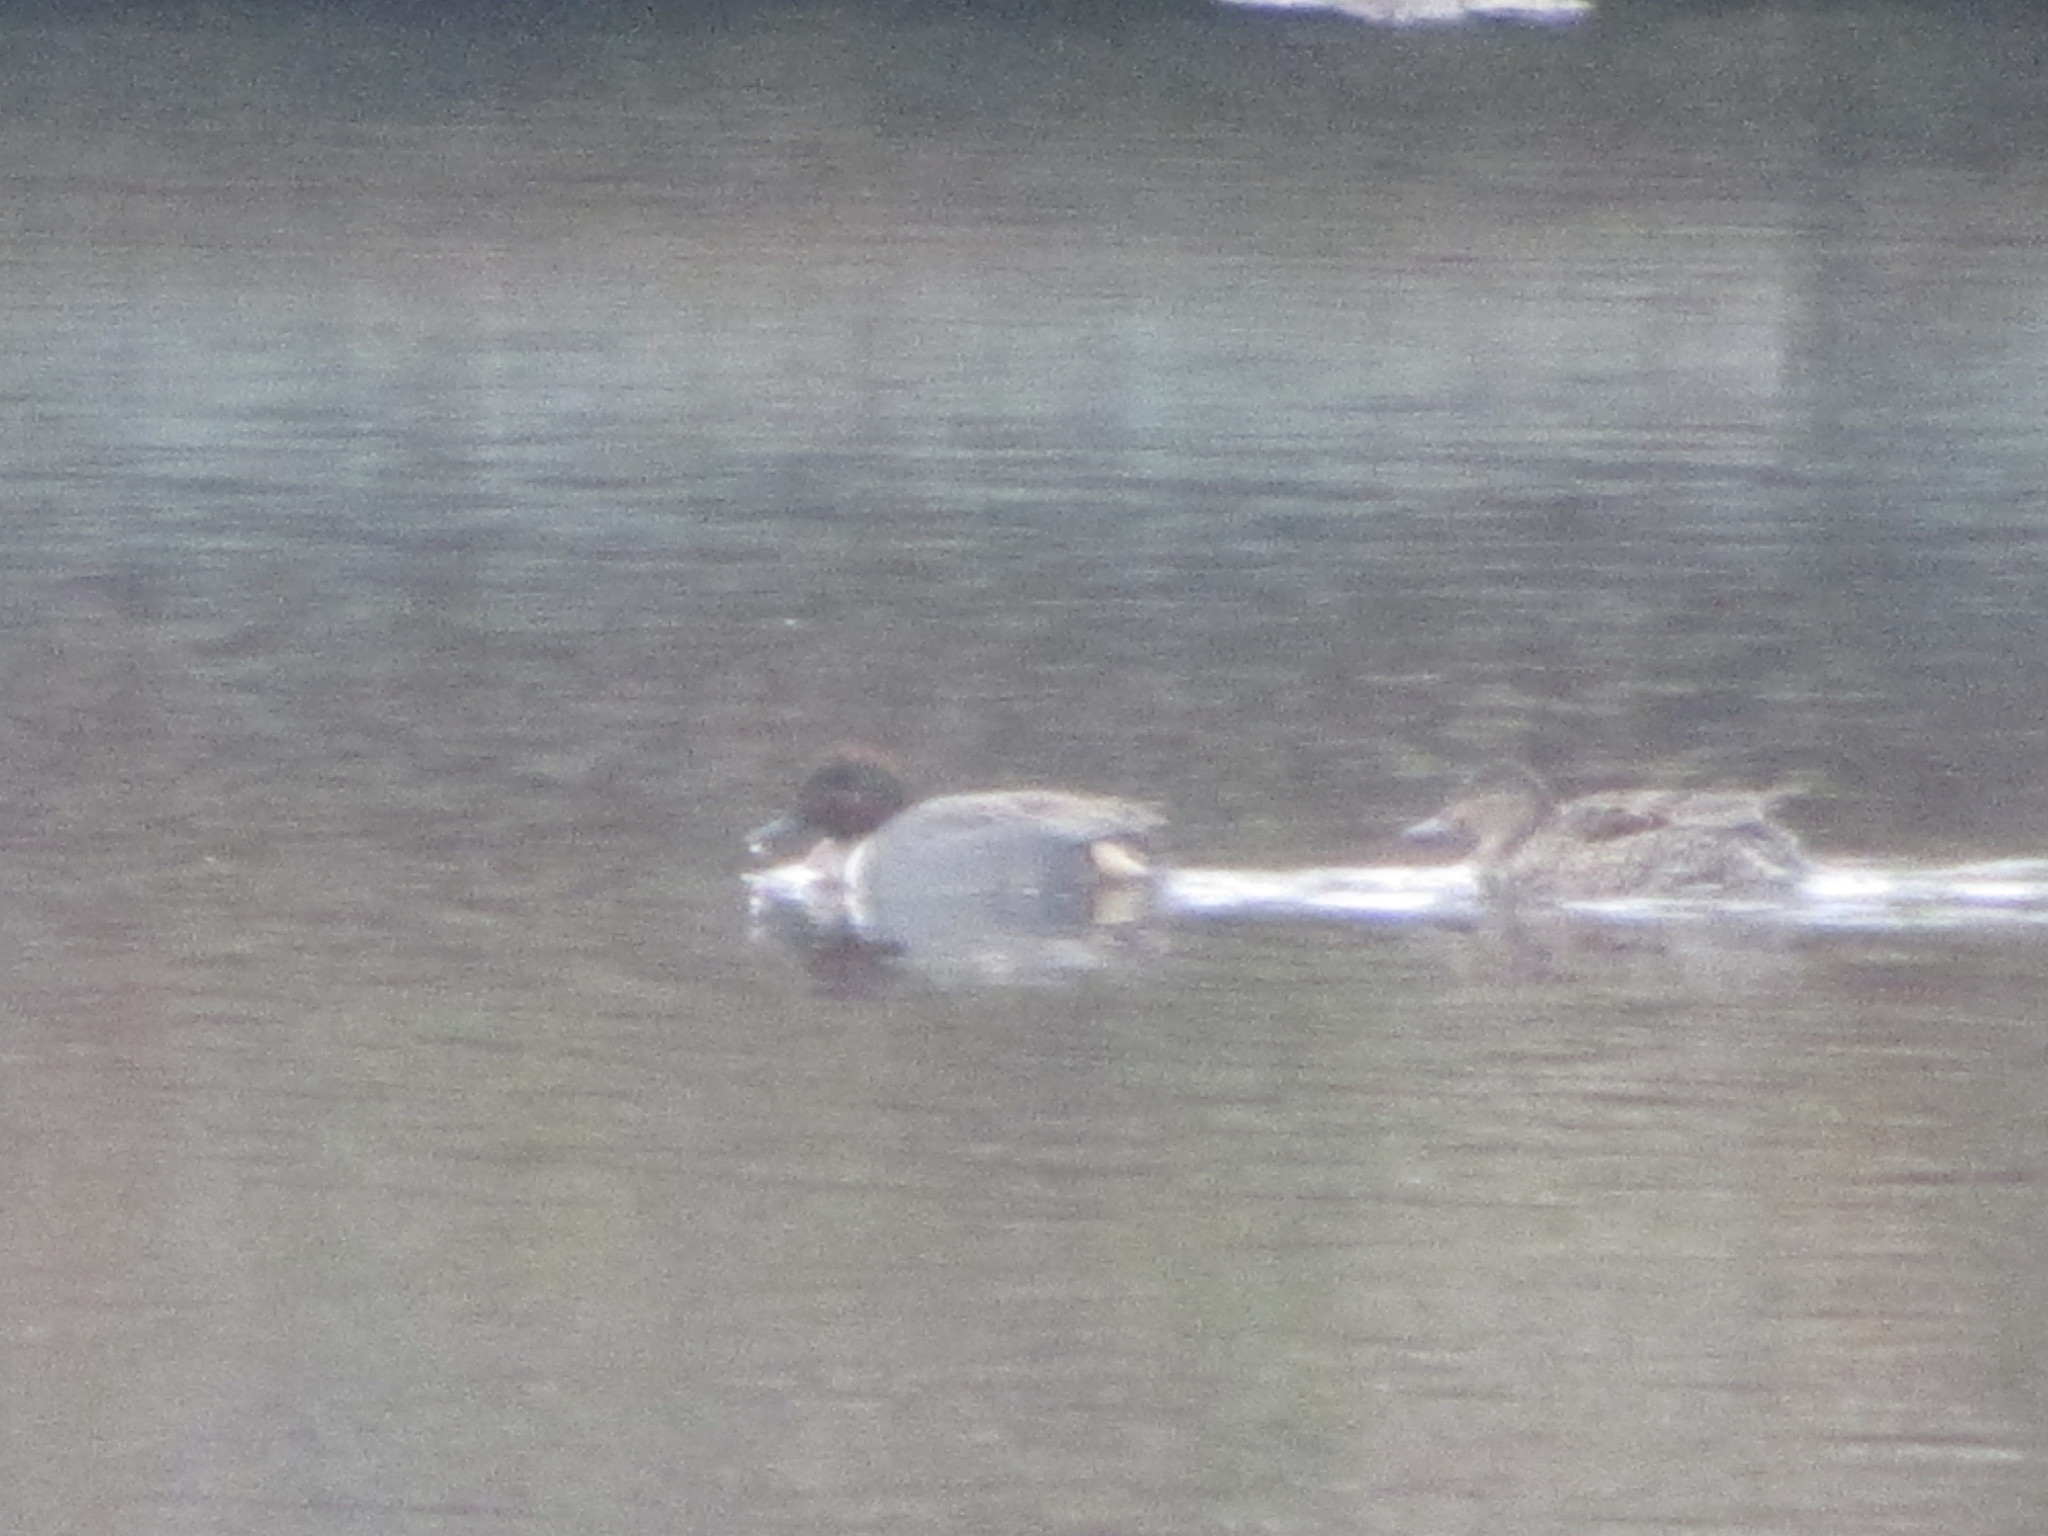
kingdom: Animalia
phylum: Chordata
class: Aves
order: Anseriformes
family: Anatidae
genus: Anas
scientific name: Anas crecca
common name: Eurasian teal
